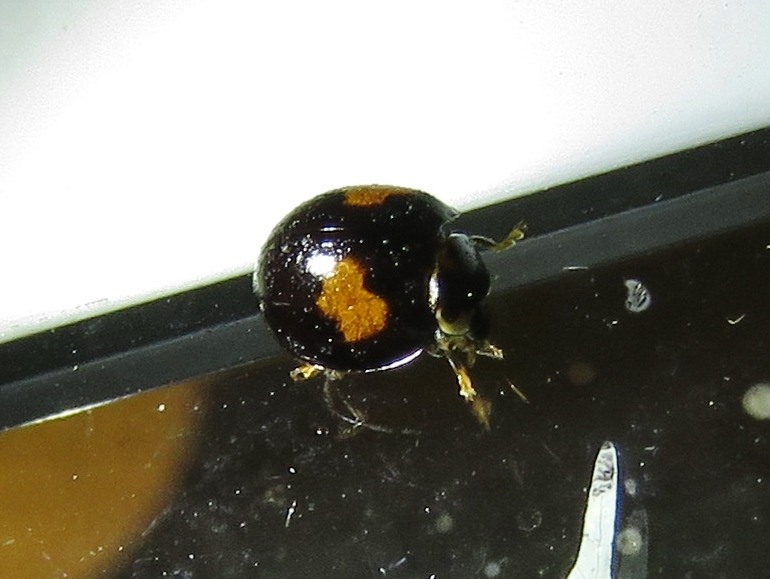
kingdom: Animalia
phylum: Arthropoda
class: Insecta
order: Coleoptera
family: Coccinellidae
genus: Olla
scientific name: Olla v-nigrum
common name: Ashy gray lady beetle
